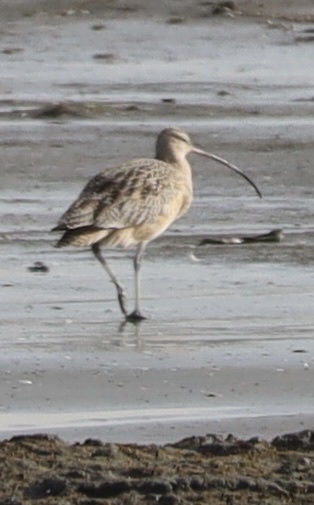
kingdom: Animalia
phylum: Chordata
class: Aves
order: Charadriiformes
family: Scolopacidae
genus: Numenius
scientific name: Numenius americanus
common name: Long-billed curlew
